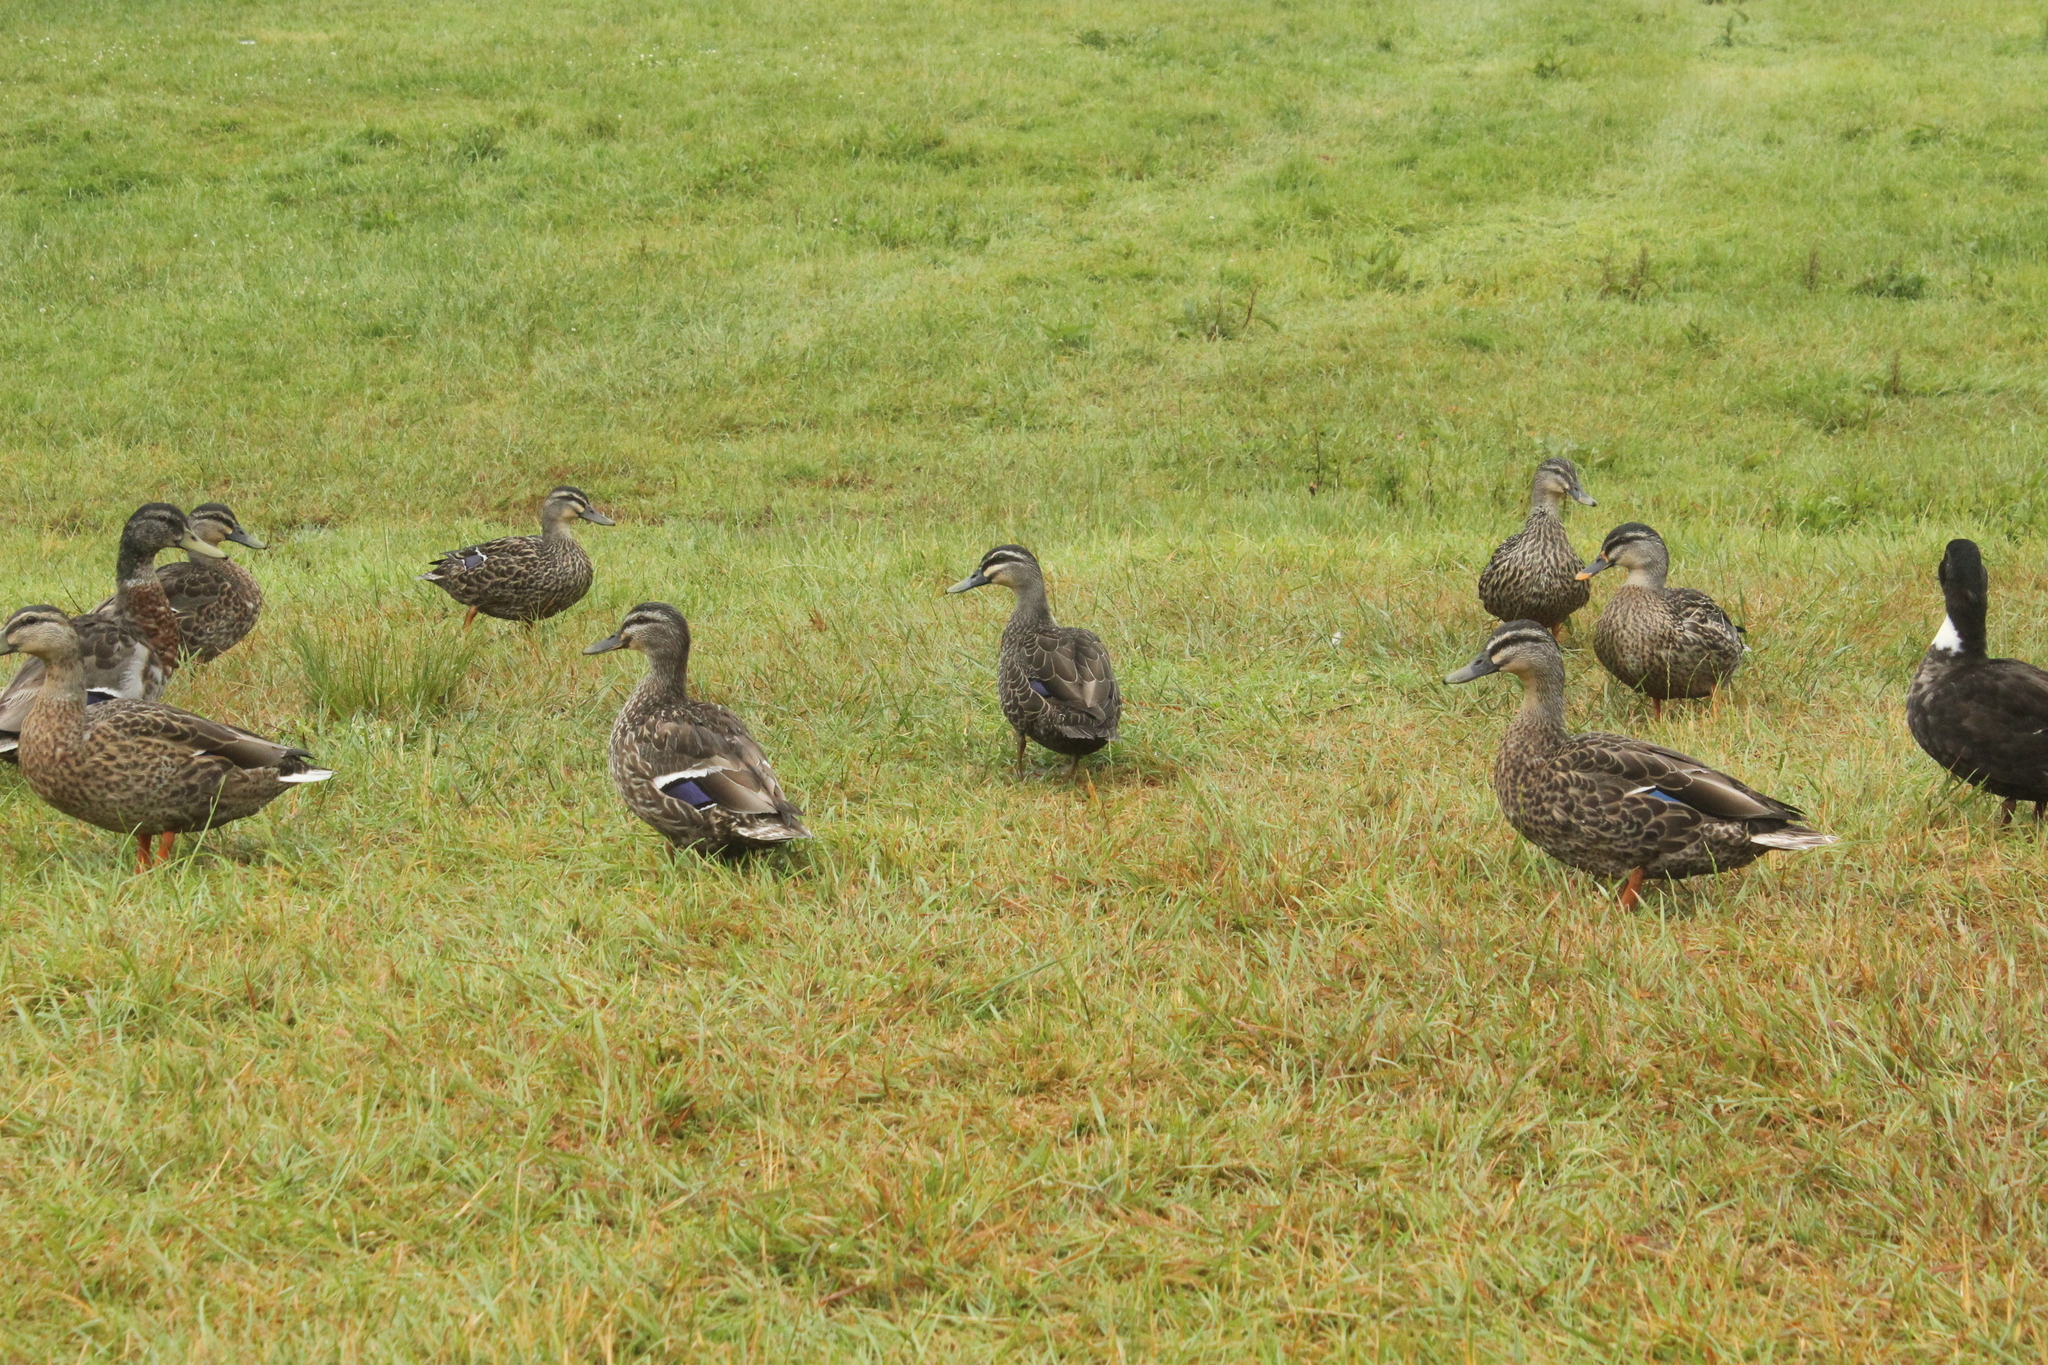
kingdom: Animalia
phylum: Chordata
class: Aves
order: Anseriformes
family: Anatidae
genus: Anas
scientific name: Anas
